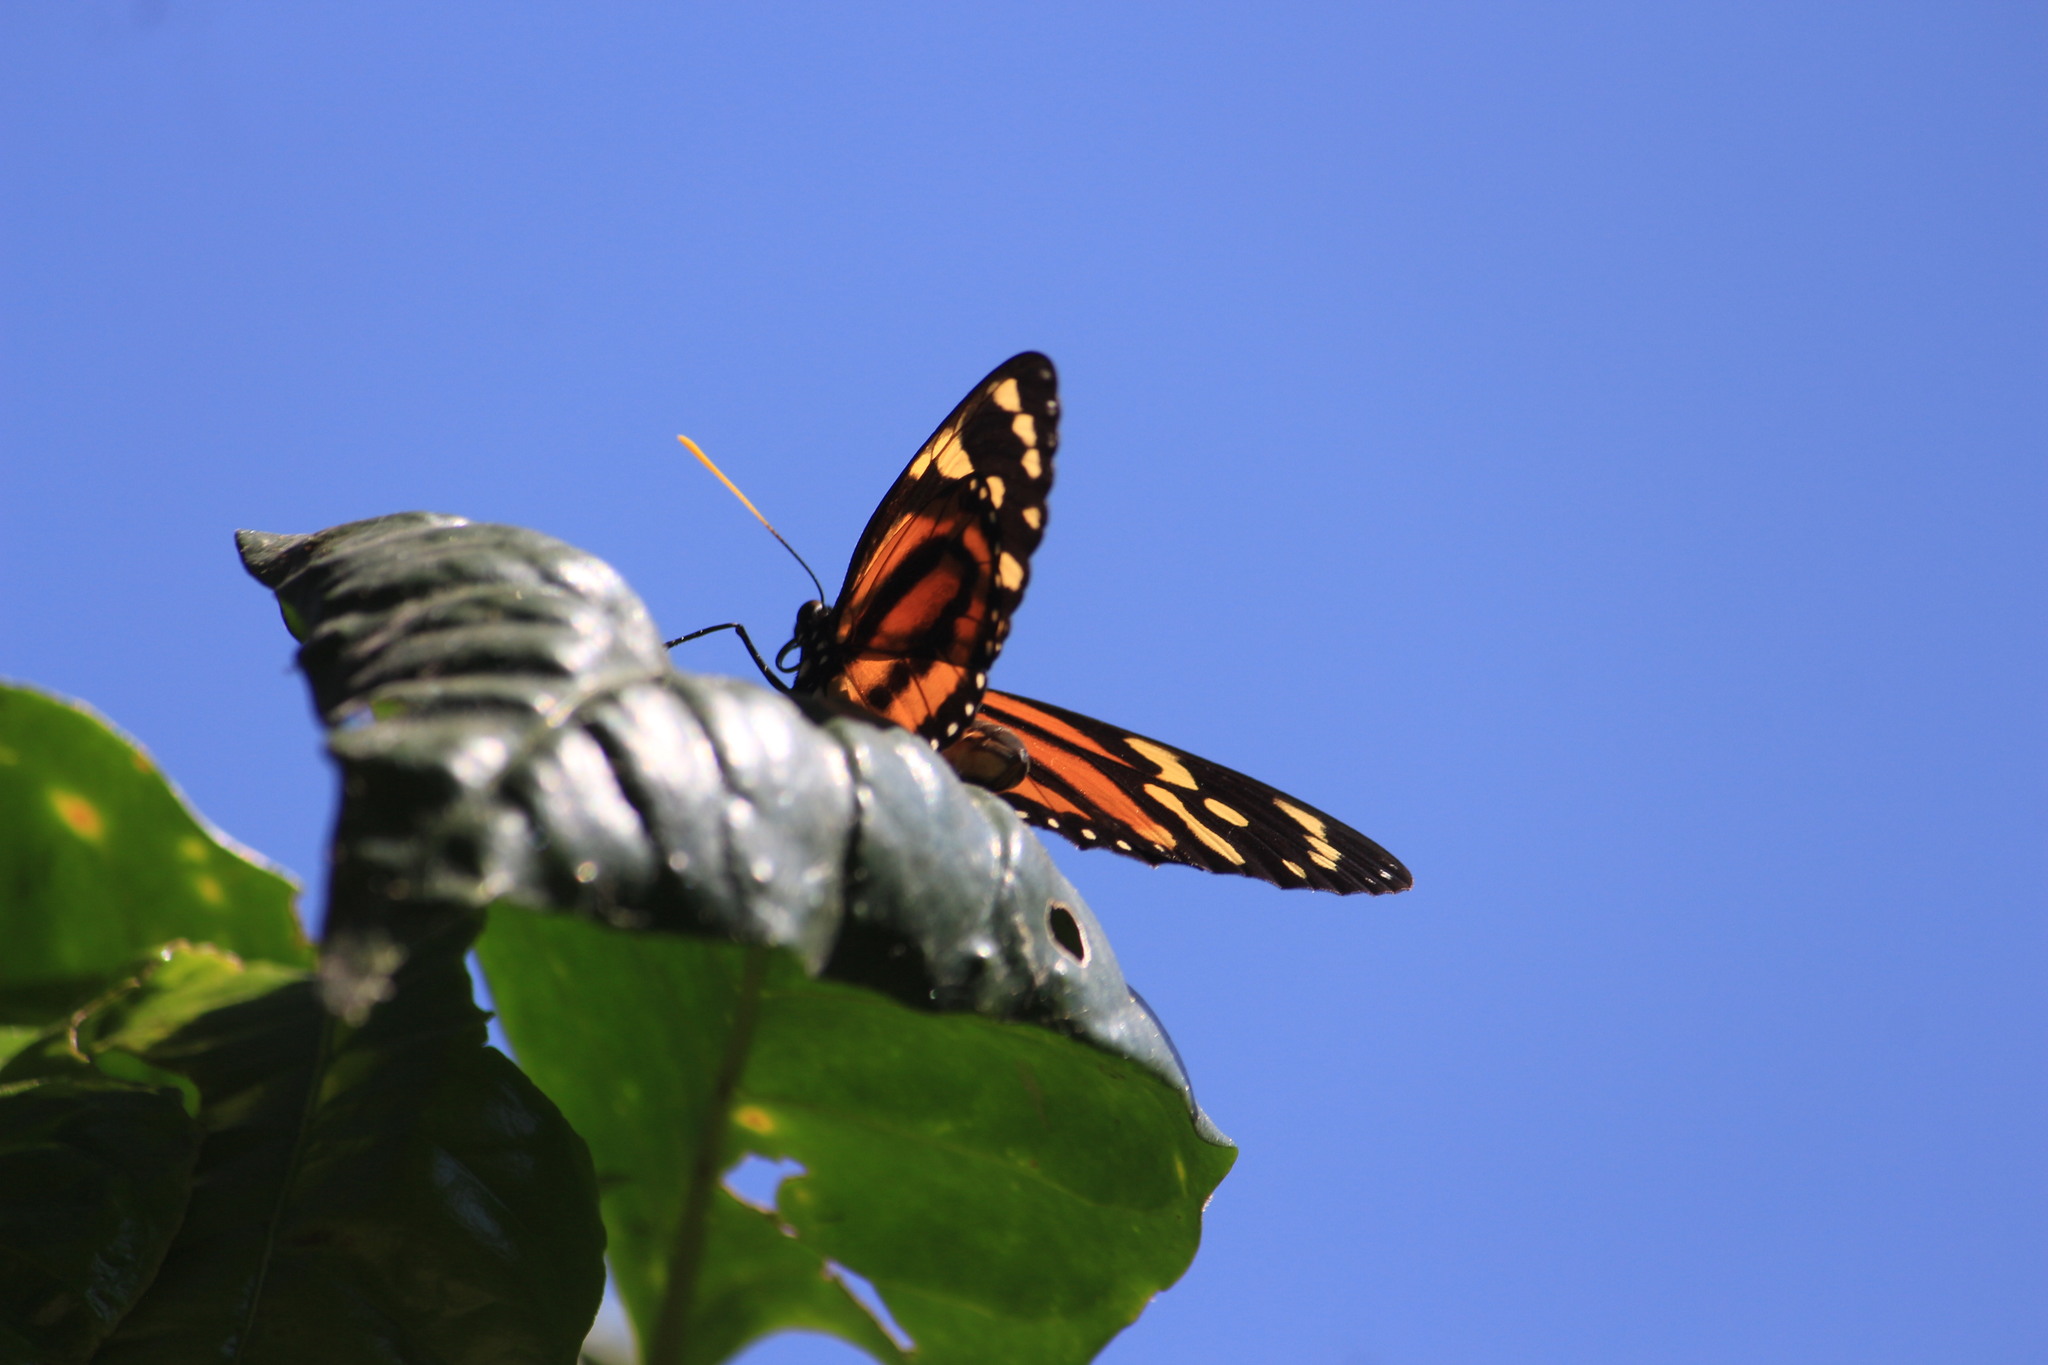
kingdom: Animalia
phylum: Arthropoda
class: Insecta
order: Lepidoptera
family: Nymphalidae
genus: Lycorea
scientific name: Lycorea cleobaea
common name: Tiger mimic-queen
